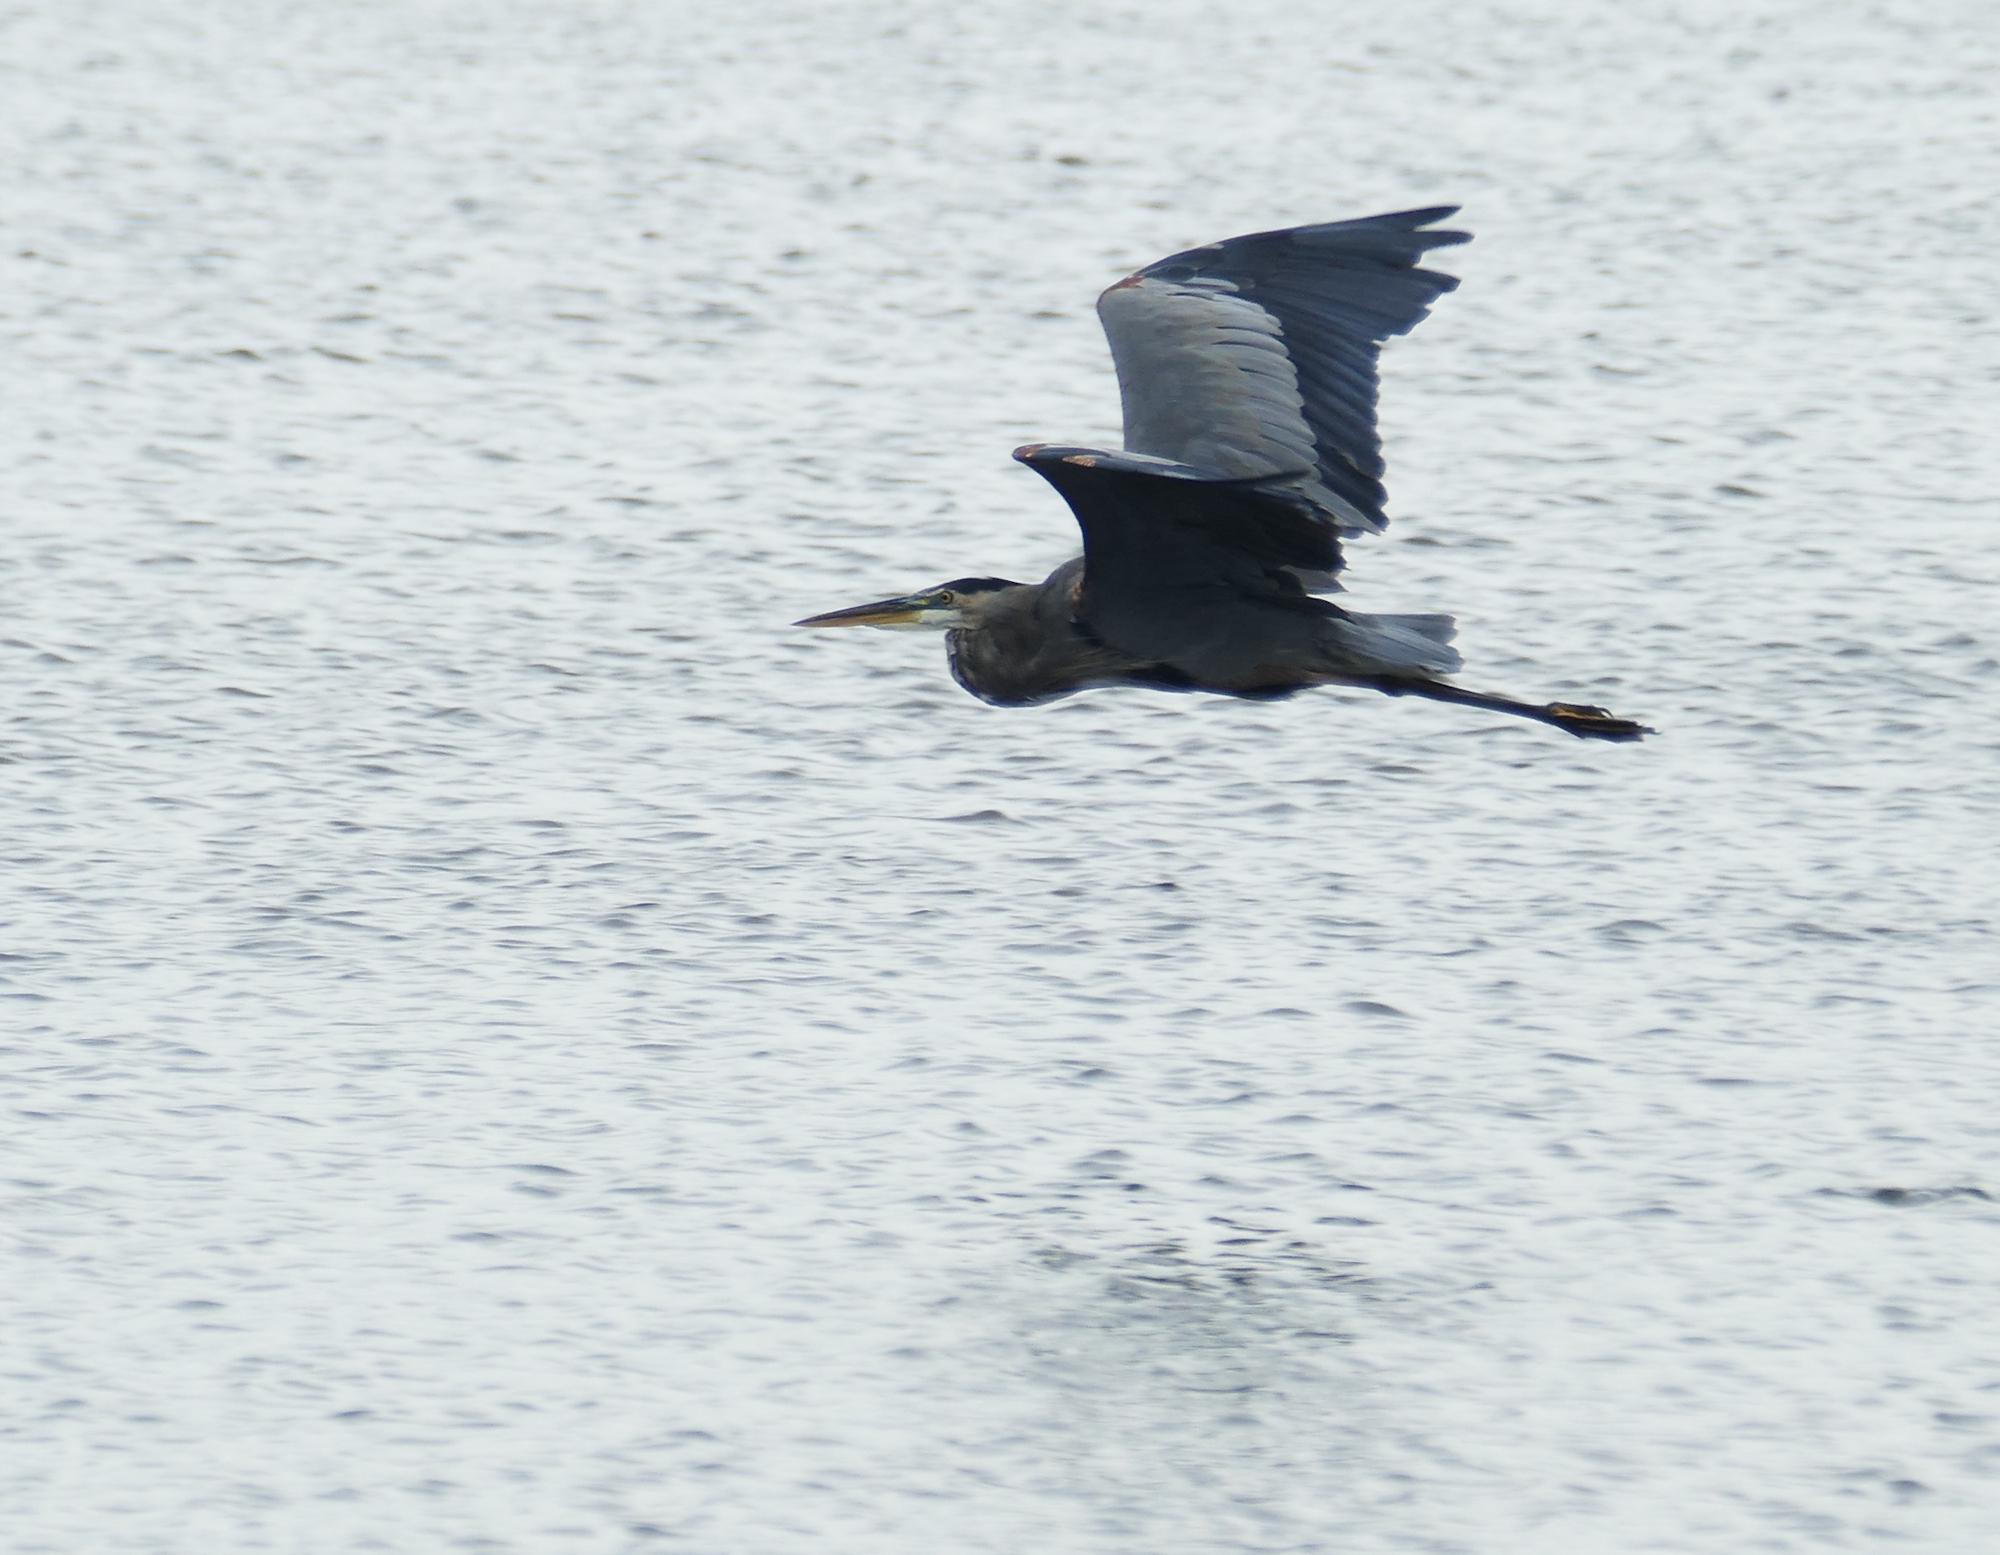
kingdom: Animalia
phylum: Chordata
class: Aves
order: Pelecaniformes
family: Ardeidae
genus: Ardea
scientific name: Ardea herodias
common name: Great blue heron
